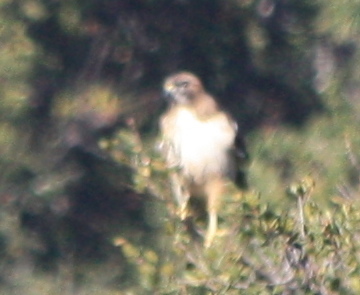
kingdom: Animalia
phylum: Chordata
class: Aves
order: Accipitriformes
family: Accipitridae
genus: Buteo
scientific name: Buteo jamaicensis
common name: Red-tailed hawk
